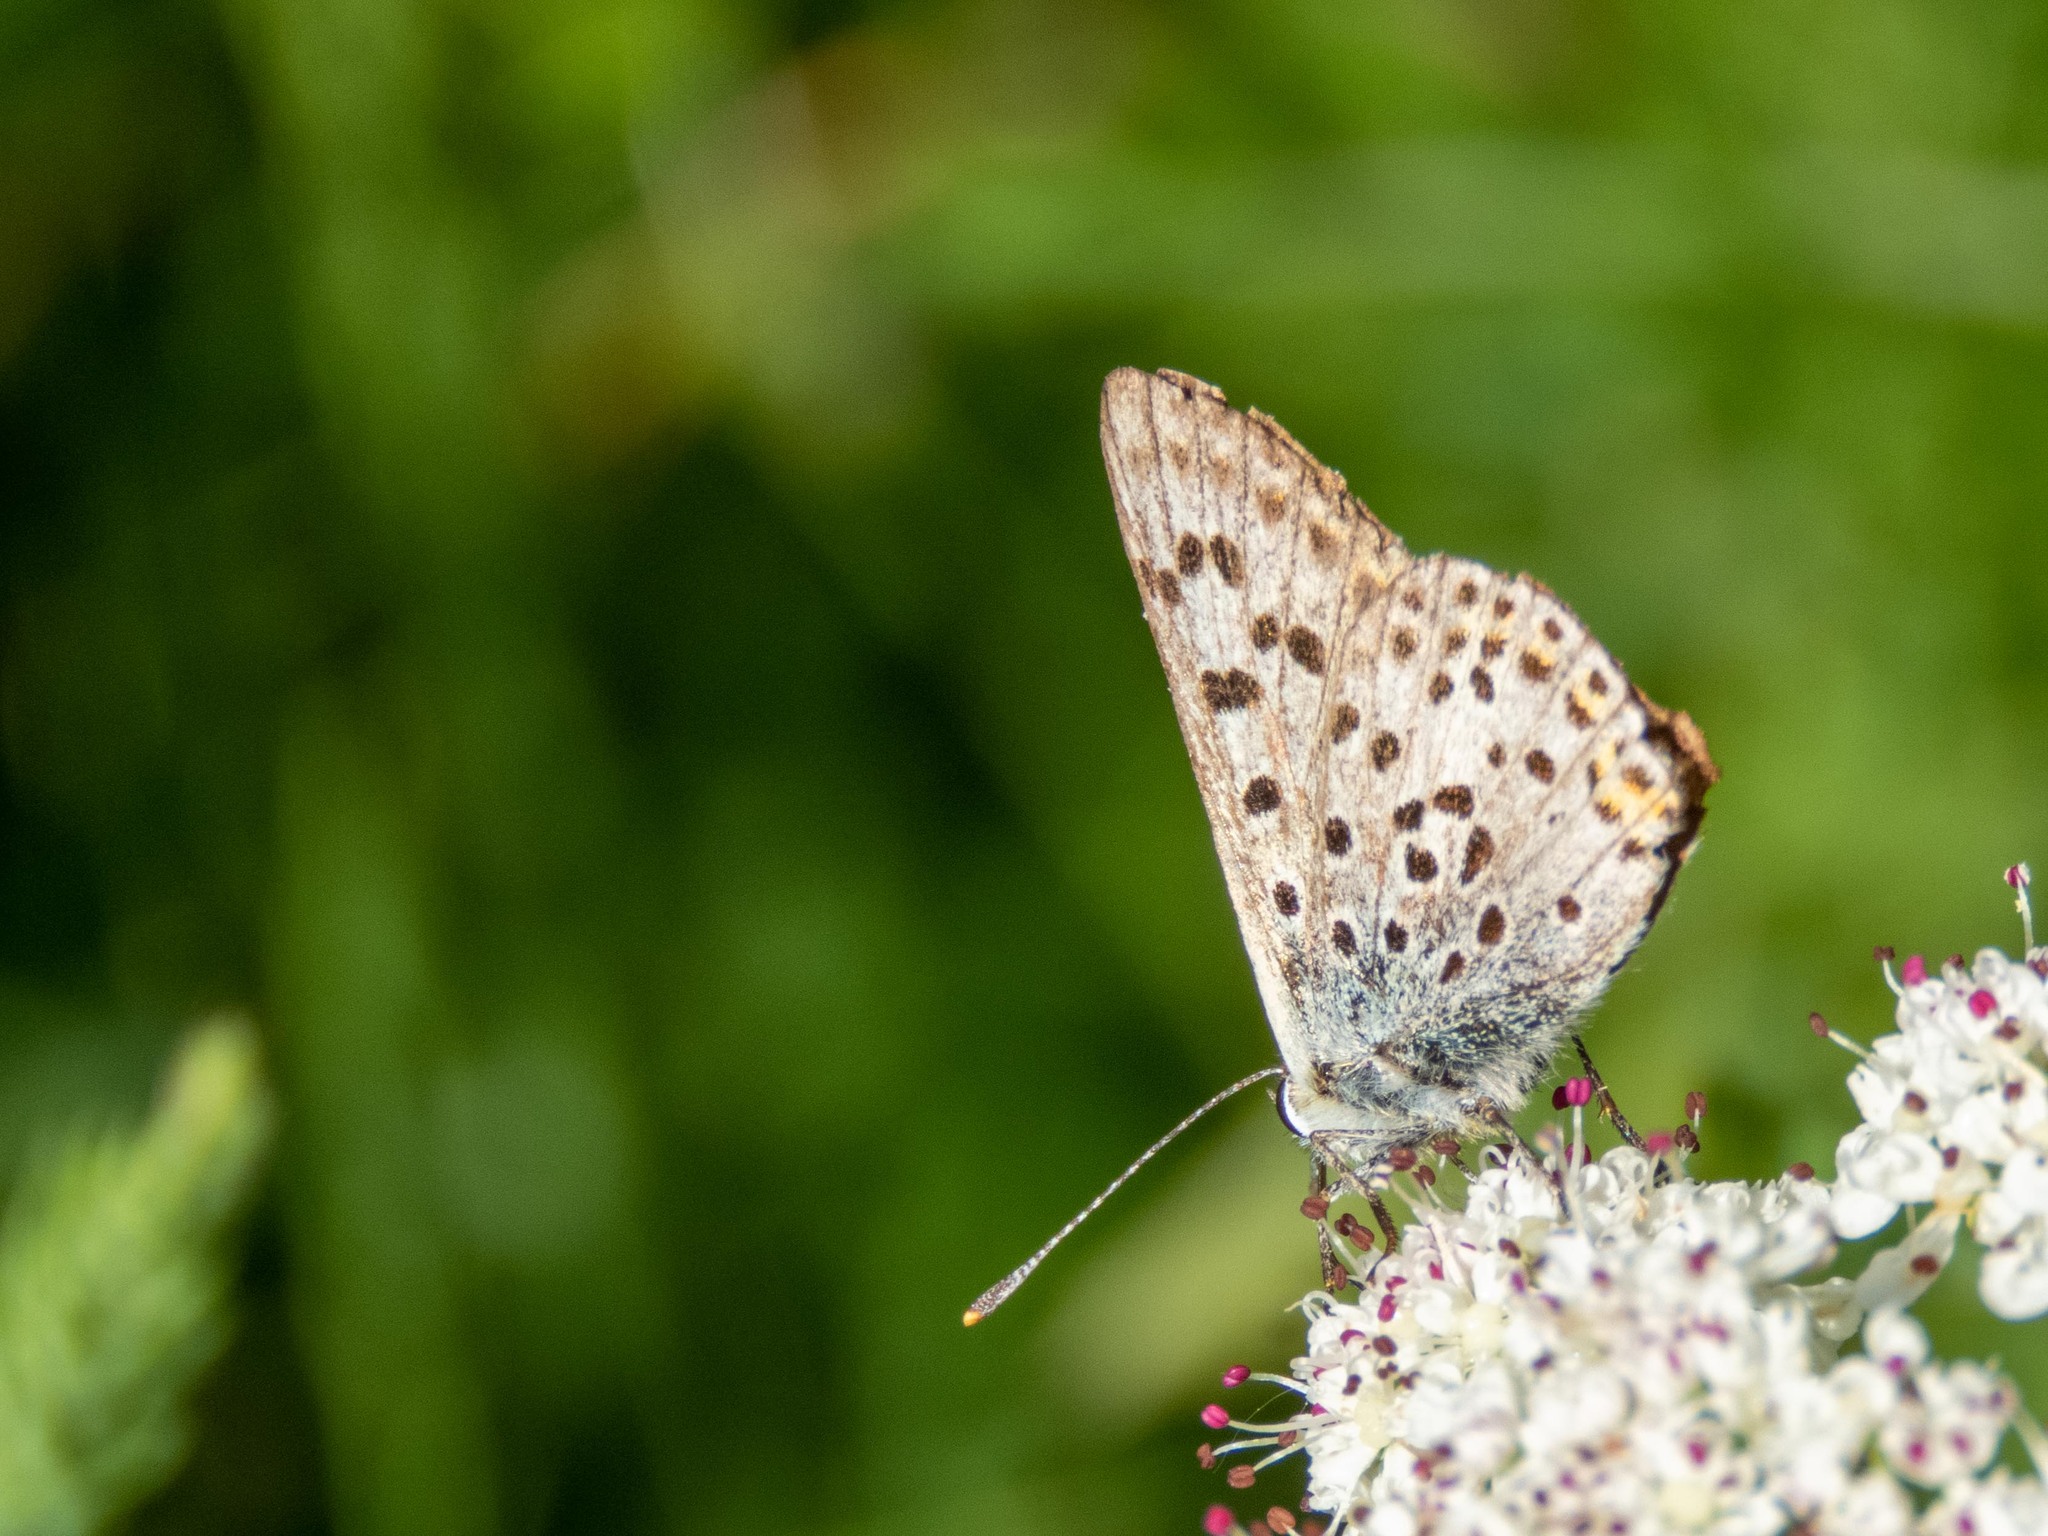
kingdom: Animalia
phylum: Arthropoda
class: Insecta
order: Lepidoptera
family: Lycaenidae
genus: Loweia
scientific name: Loweia tityrus
